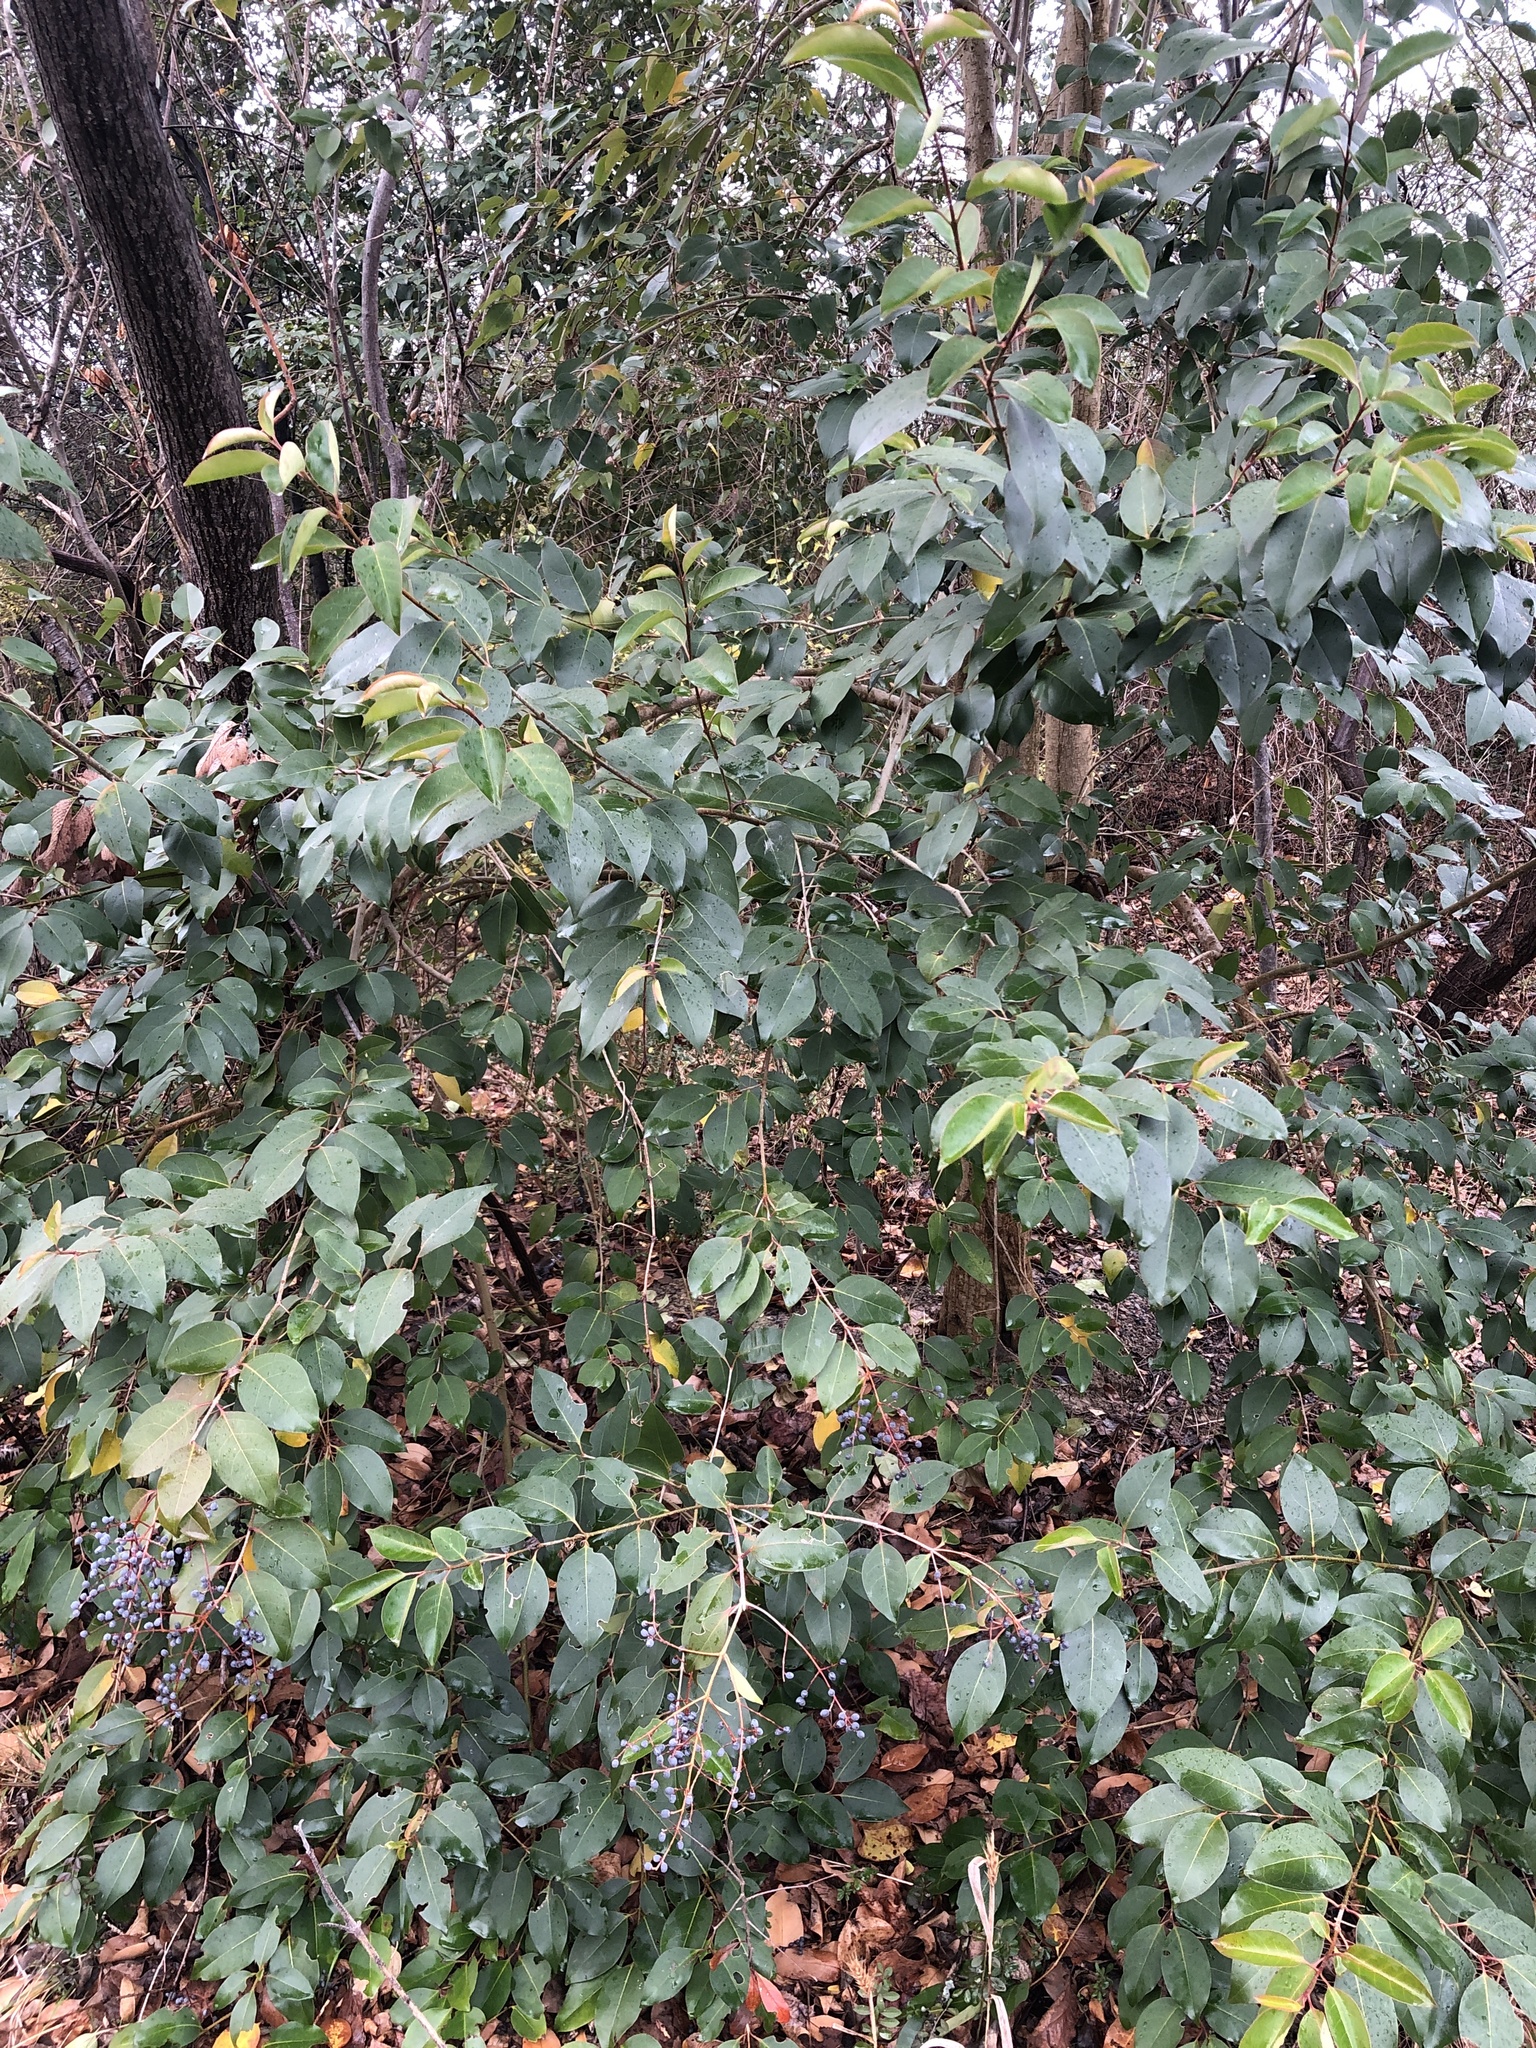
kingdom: Plantae
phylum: Tracheophyta
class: Magnoliopsida
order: Lamiales
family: Oleaceae
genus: Ligustrum
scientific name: Ligustrum lucidum
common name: Glossy privet
